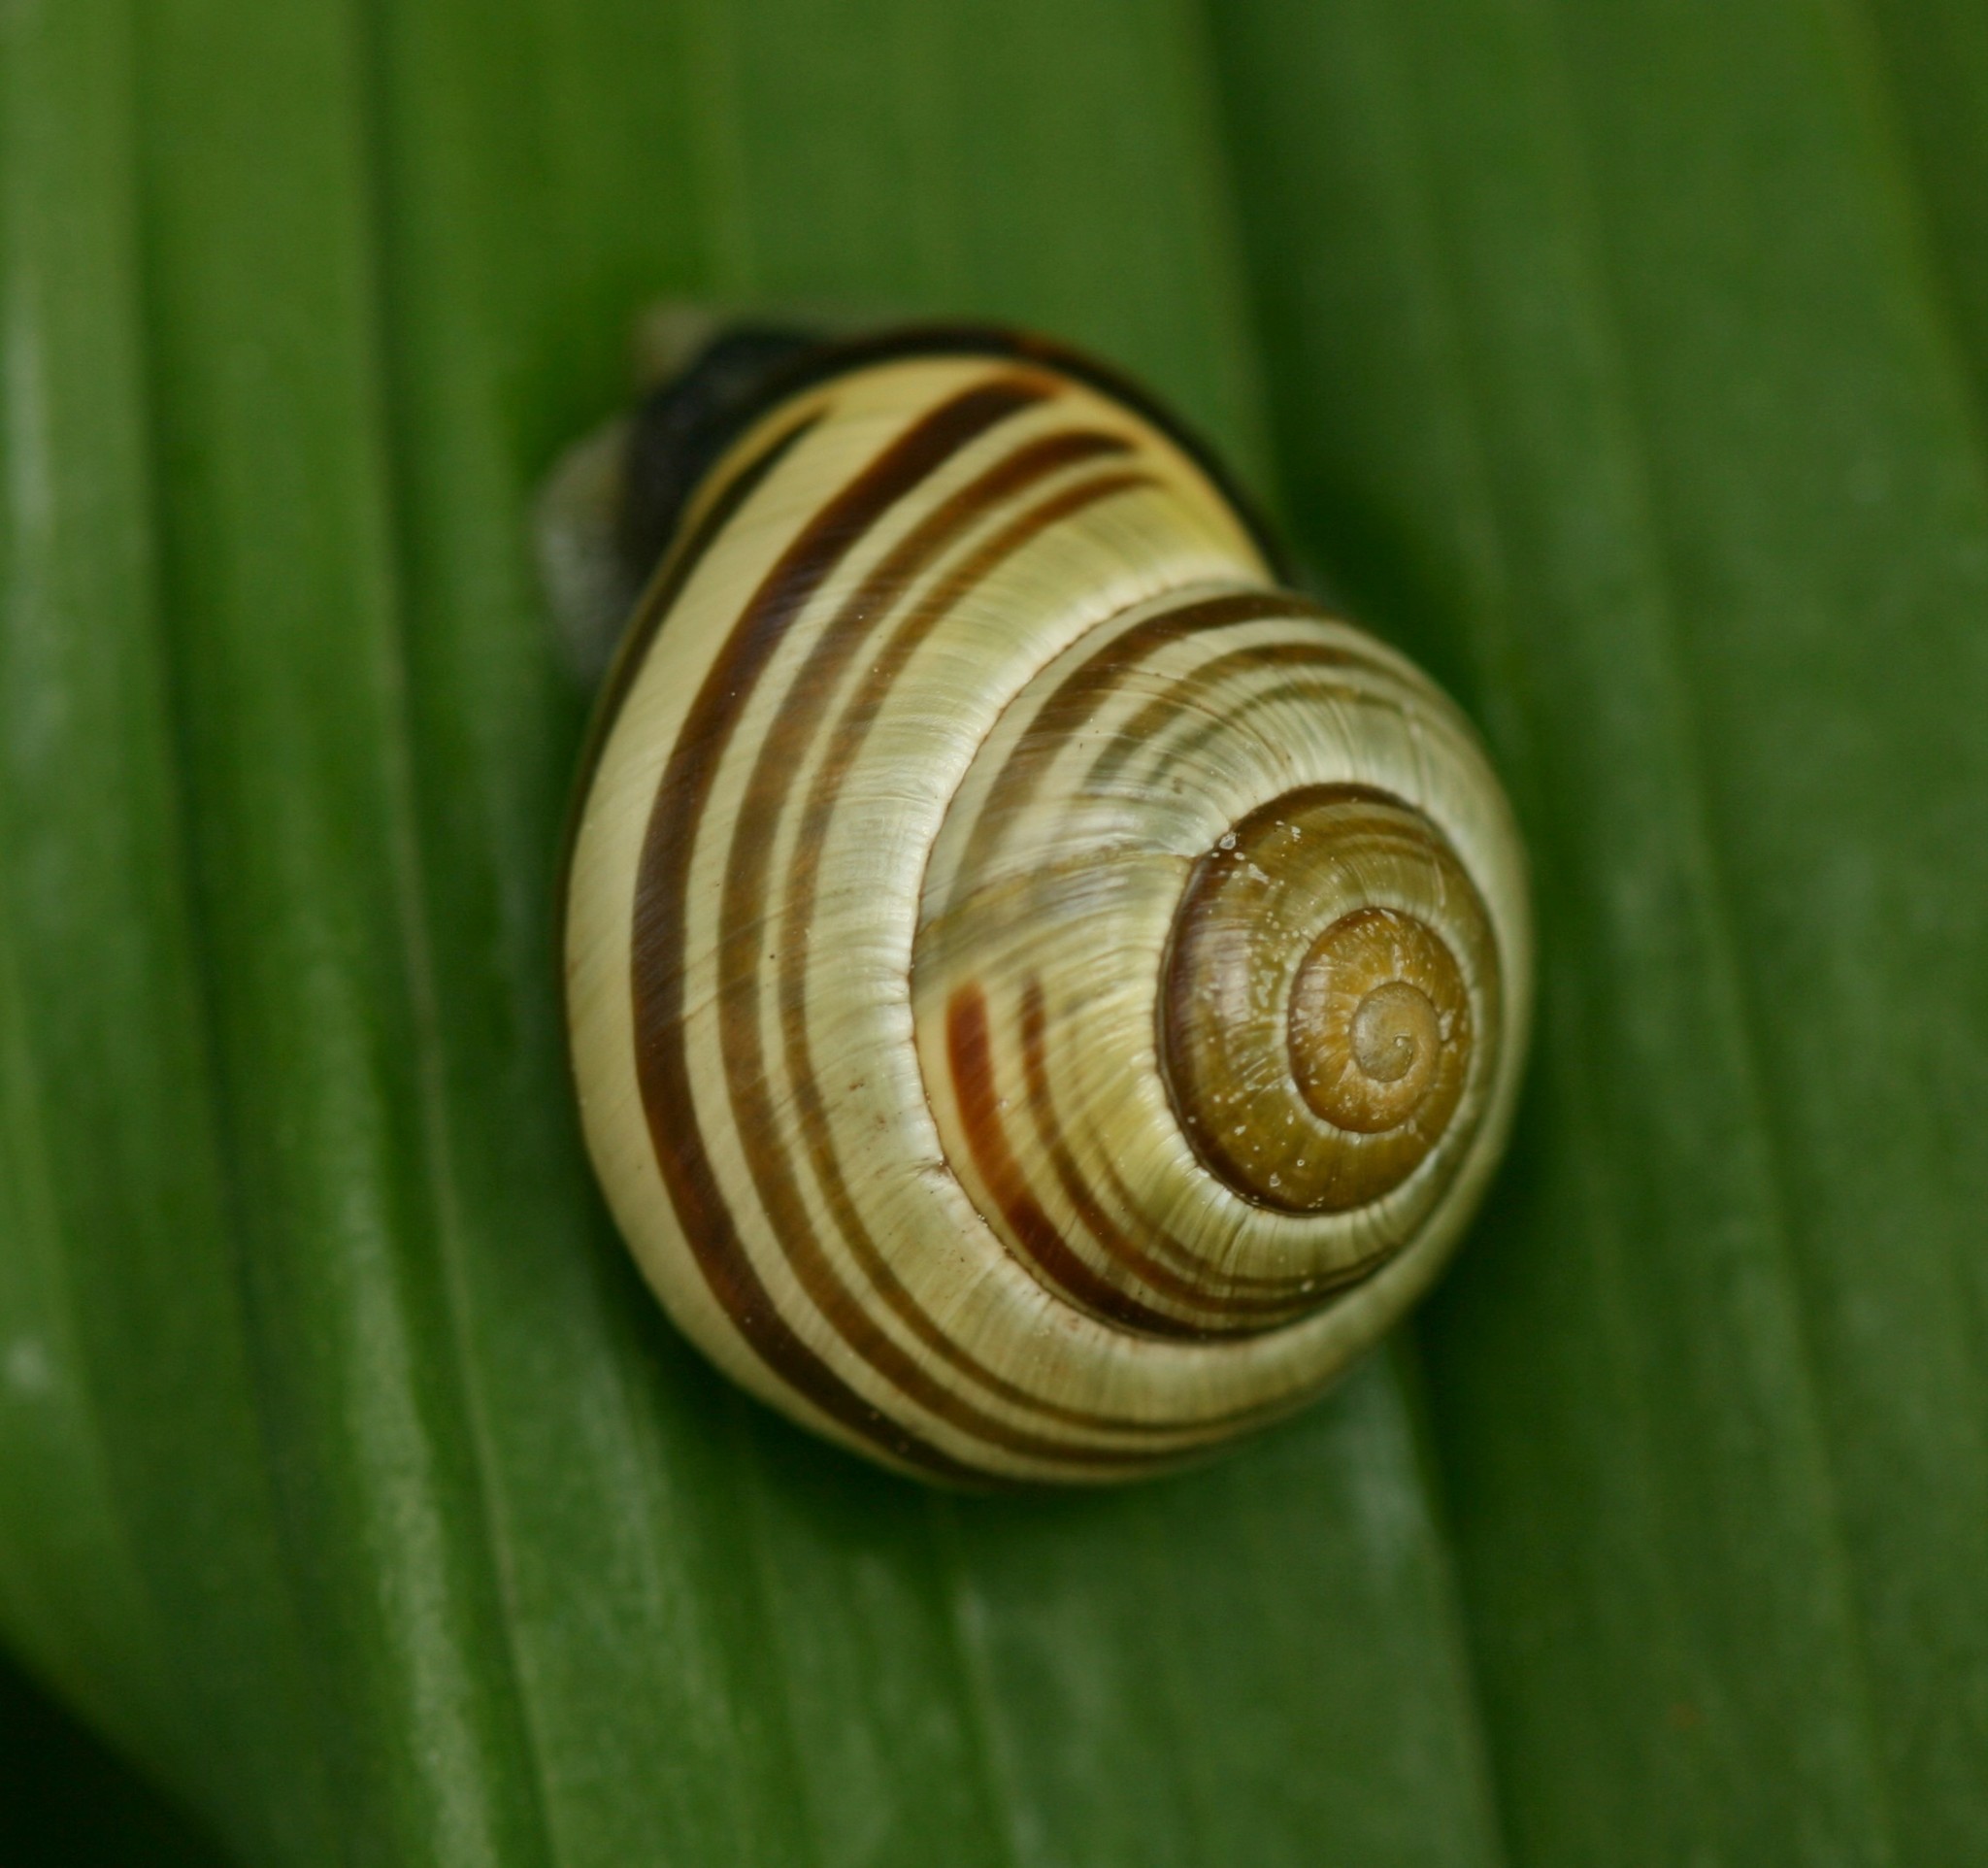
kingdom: Animalia
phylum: Mollusca
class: Gastropoda
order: Stylommatophora
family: Helicidae
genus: Cepaea
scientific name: Cepaea nemoralis
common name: Grovesnail
